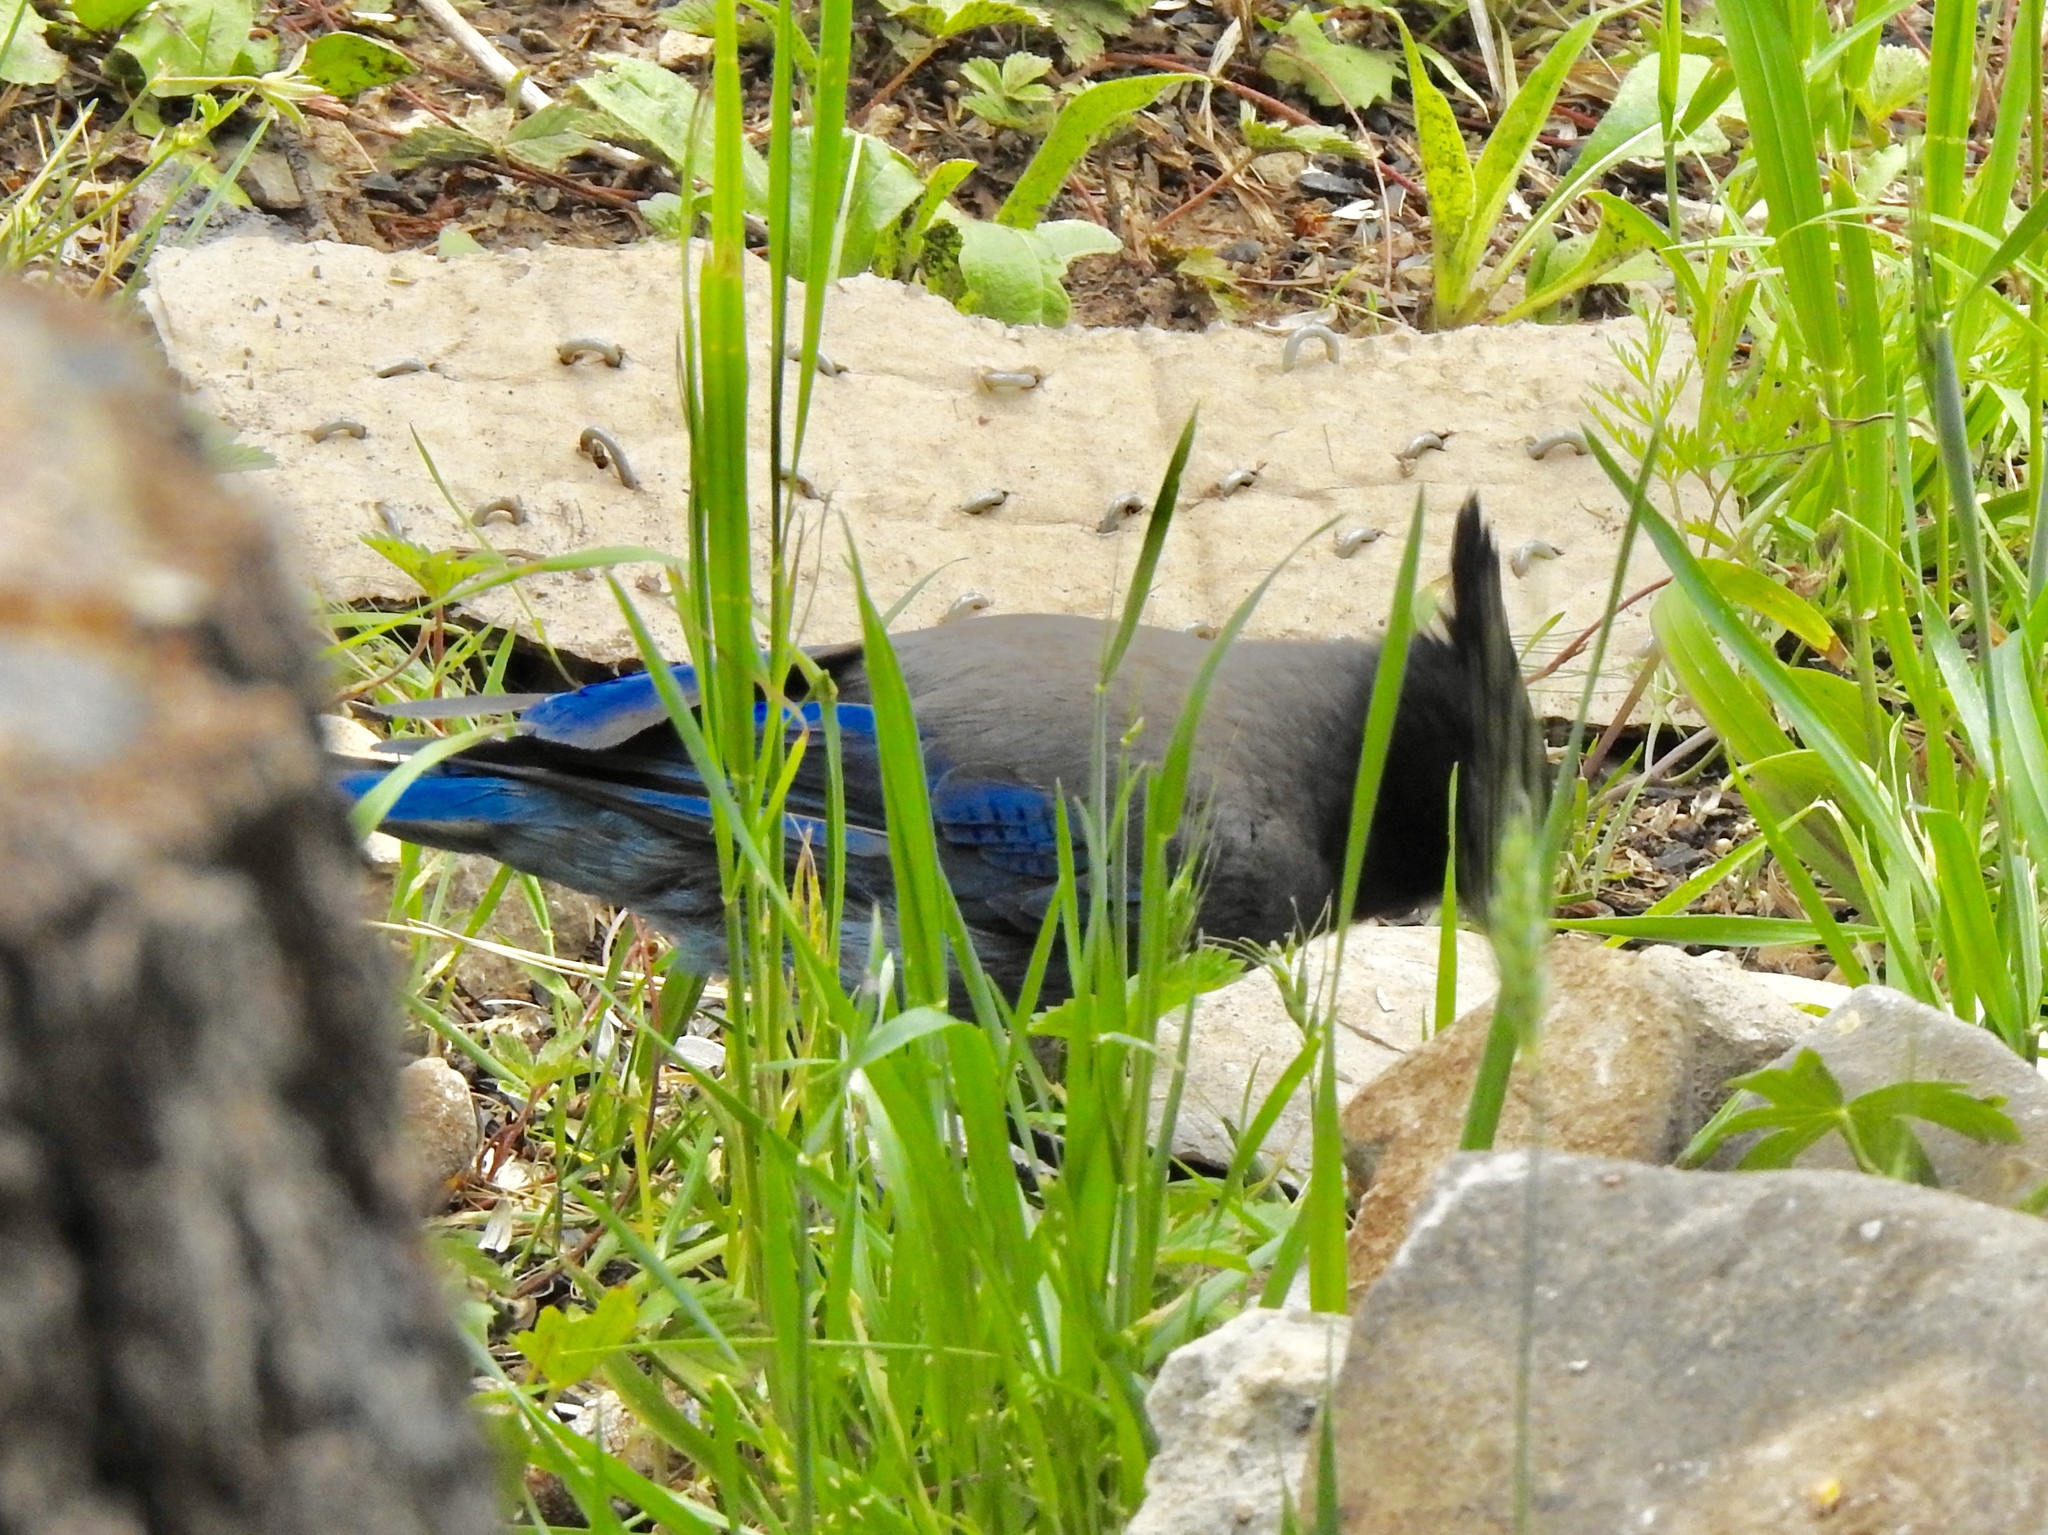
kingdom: Animalia
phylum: Chordata
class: Aves
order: Passeriformes
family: Corvidae
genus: Cyanocitta
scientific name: Cyanocitta stelleri
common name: Steller's jay
